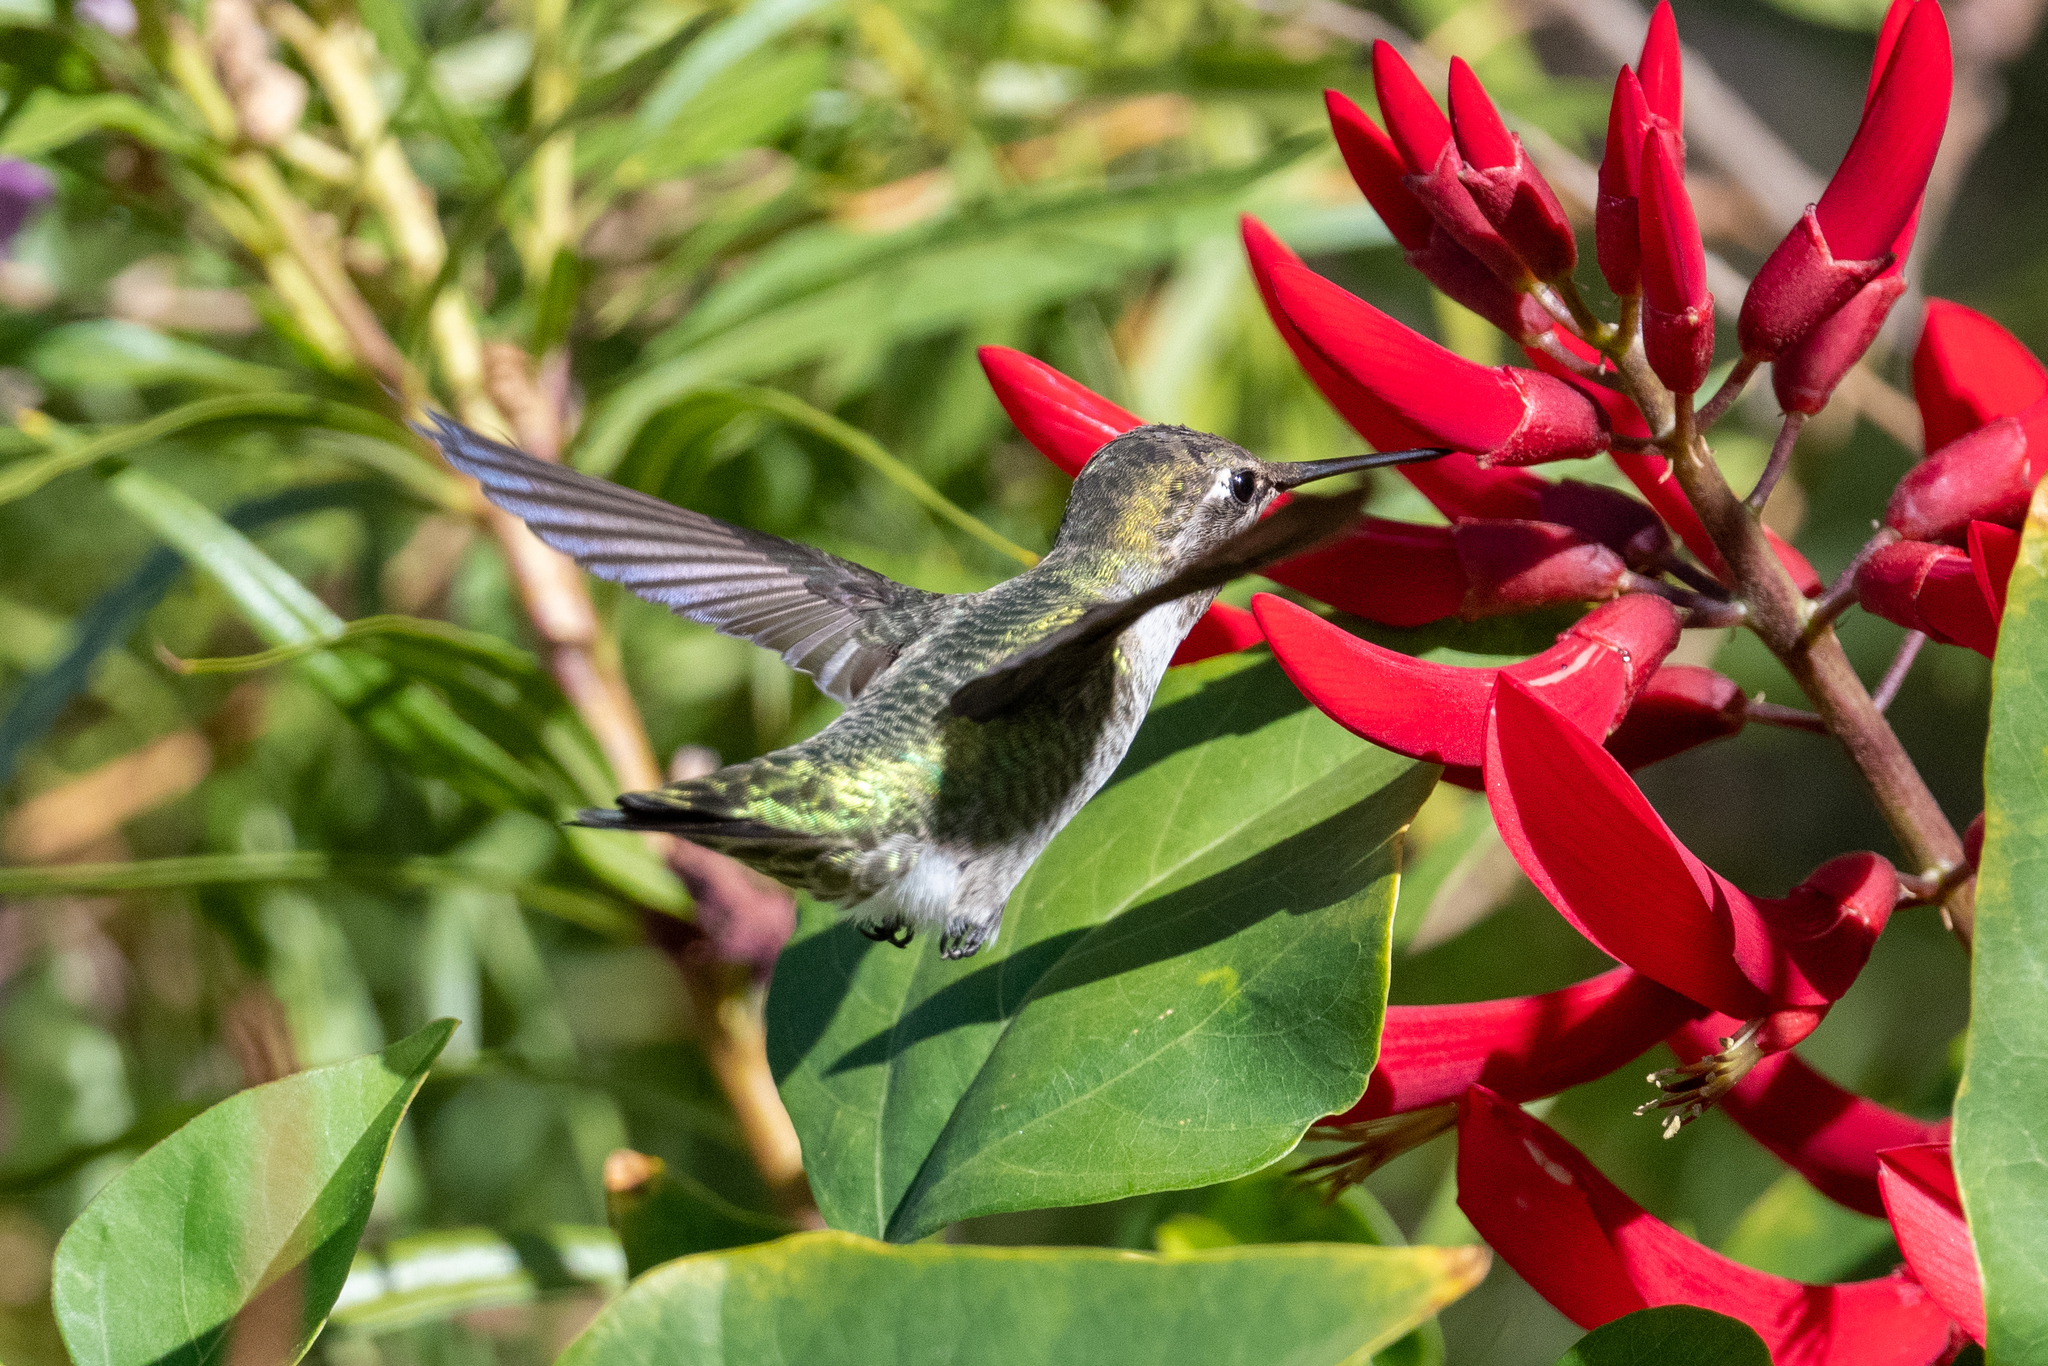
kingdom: Animalia
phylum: Chordata
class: Aves
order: Apodiformes
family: Trochilidae
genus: Calypte
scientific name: Calypte anna
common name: Anna's hummingbird
